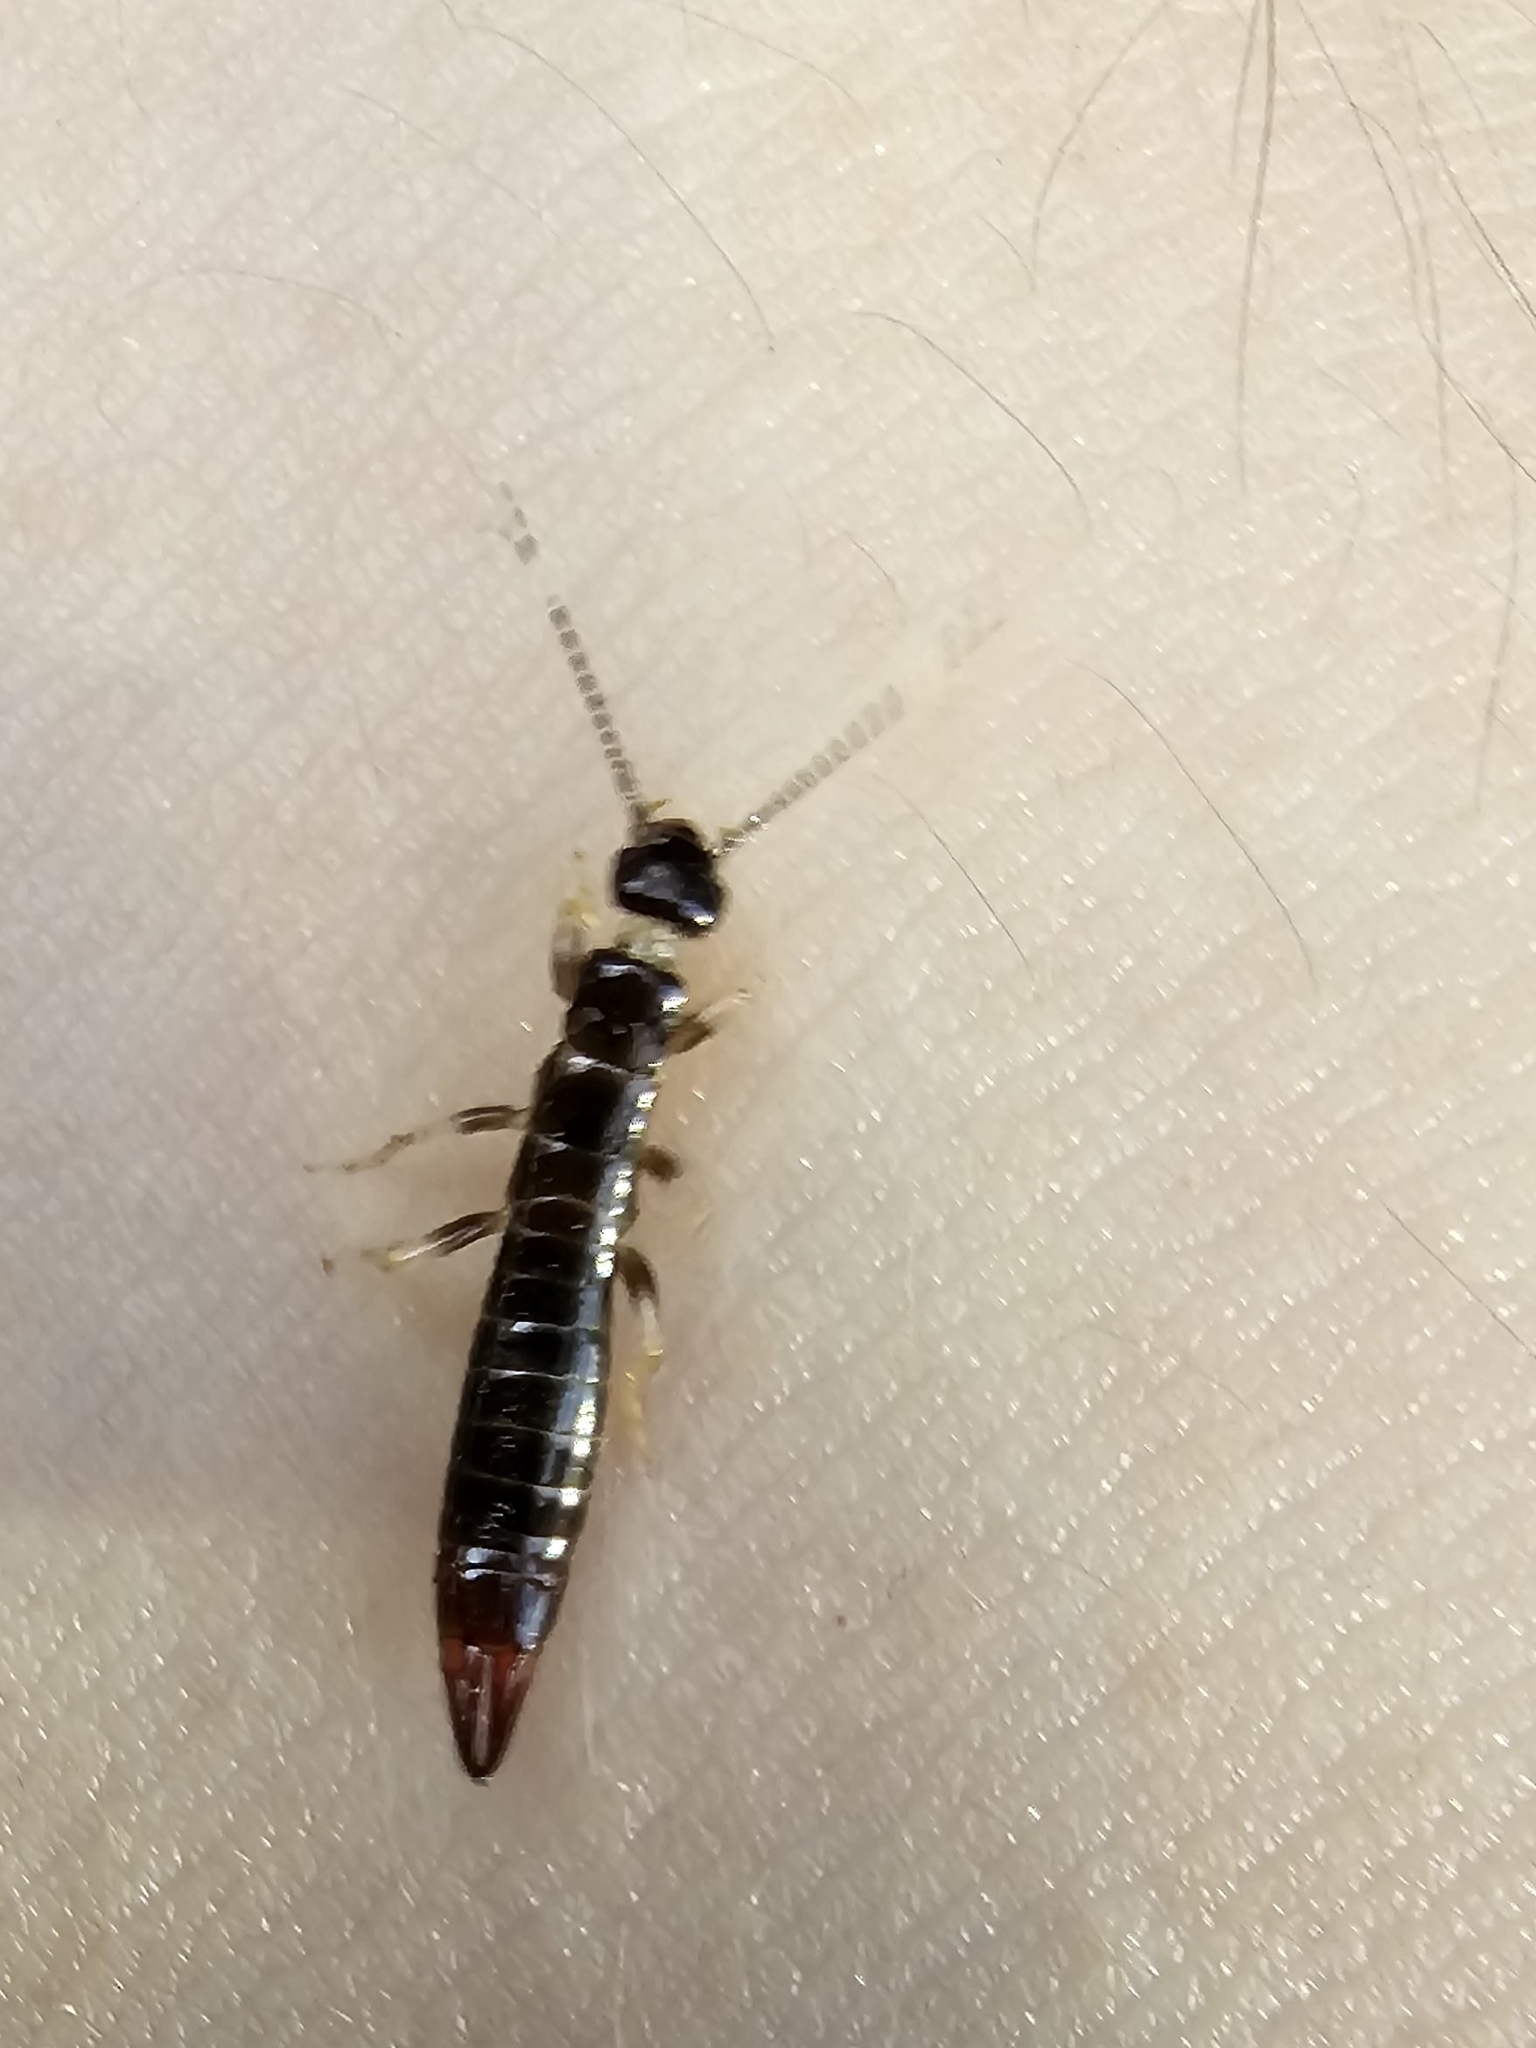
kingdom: Animalia
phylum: Arthropoda
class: Insecta
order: Dermaptera
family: Anisolabididae
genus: Euborellia
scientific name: Euborellia arcanum
